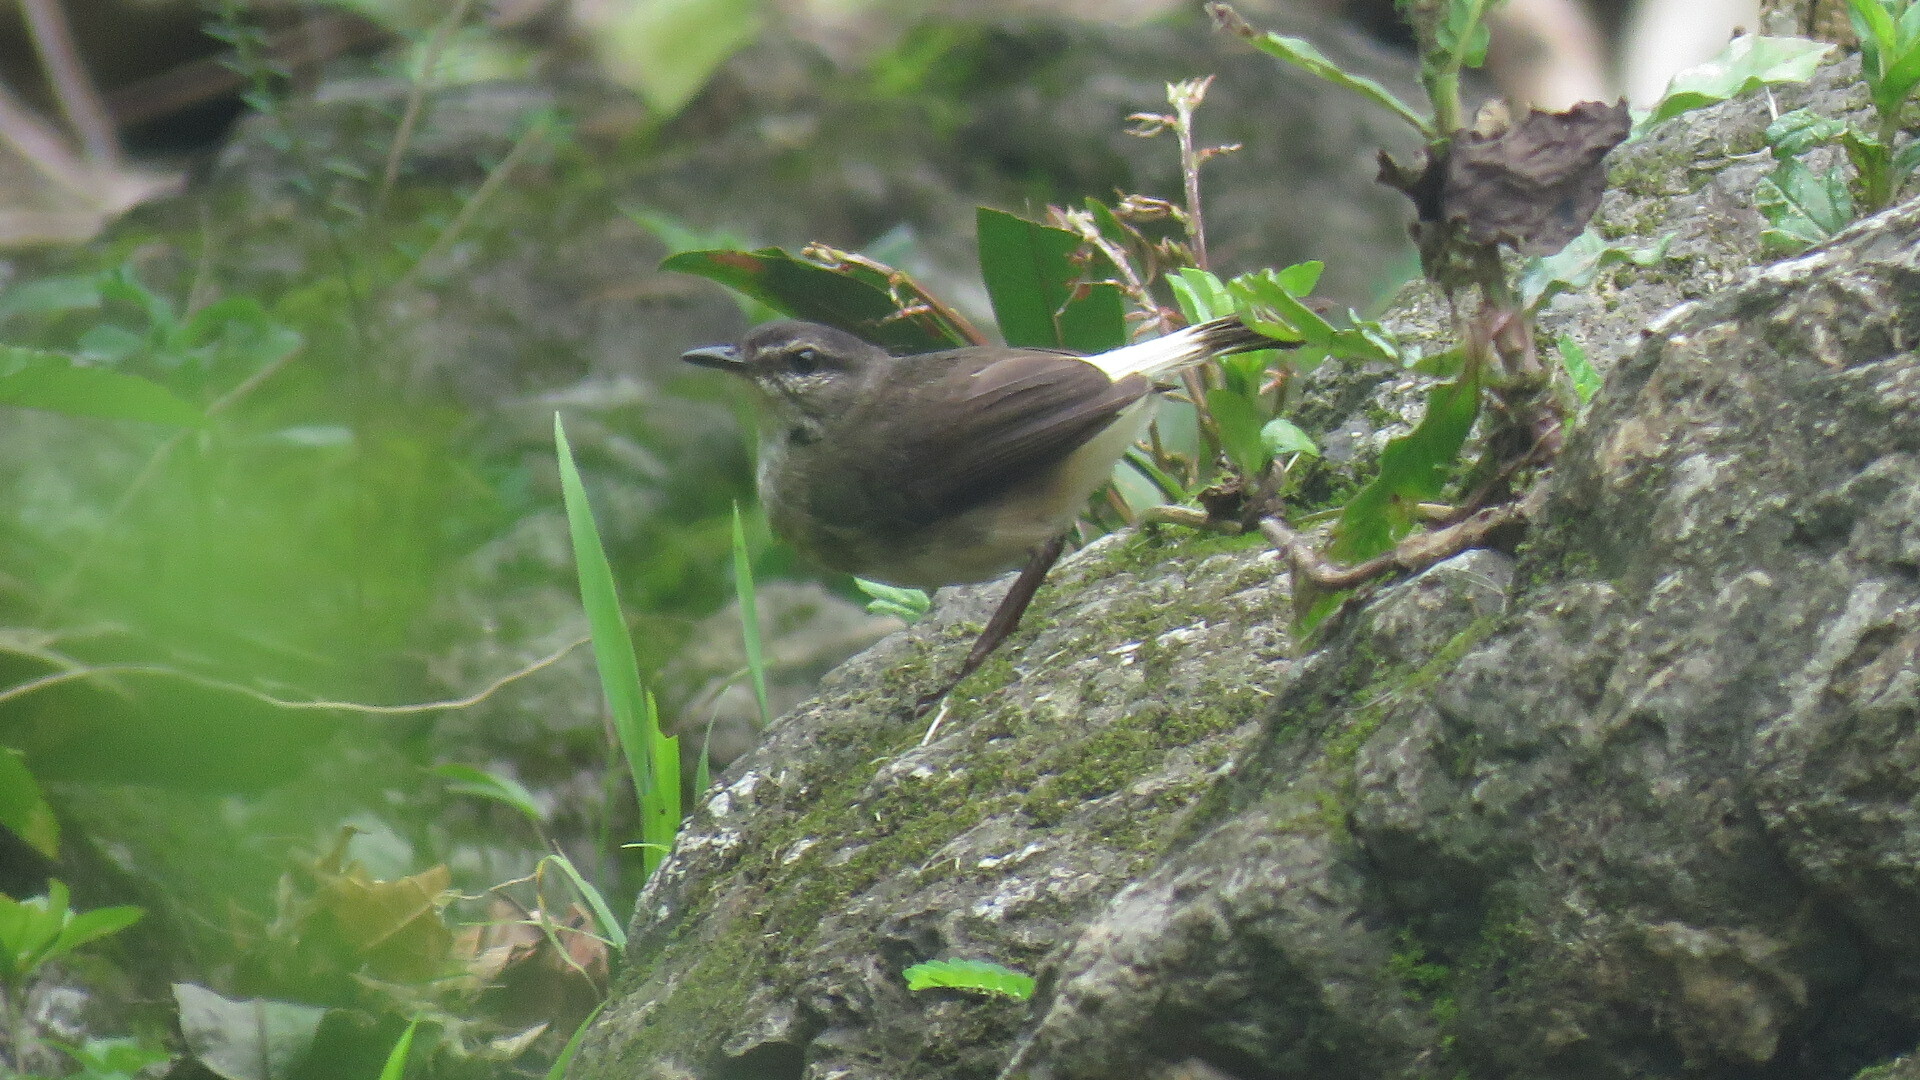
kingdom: Animalia
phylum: Chordata
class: Aves
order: Passeriformes
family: Parulidae
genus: Myiothlypis
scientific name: Myiothlypis fulvicauda
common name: Buff-rumped warbler
